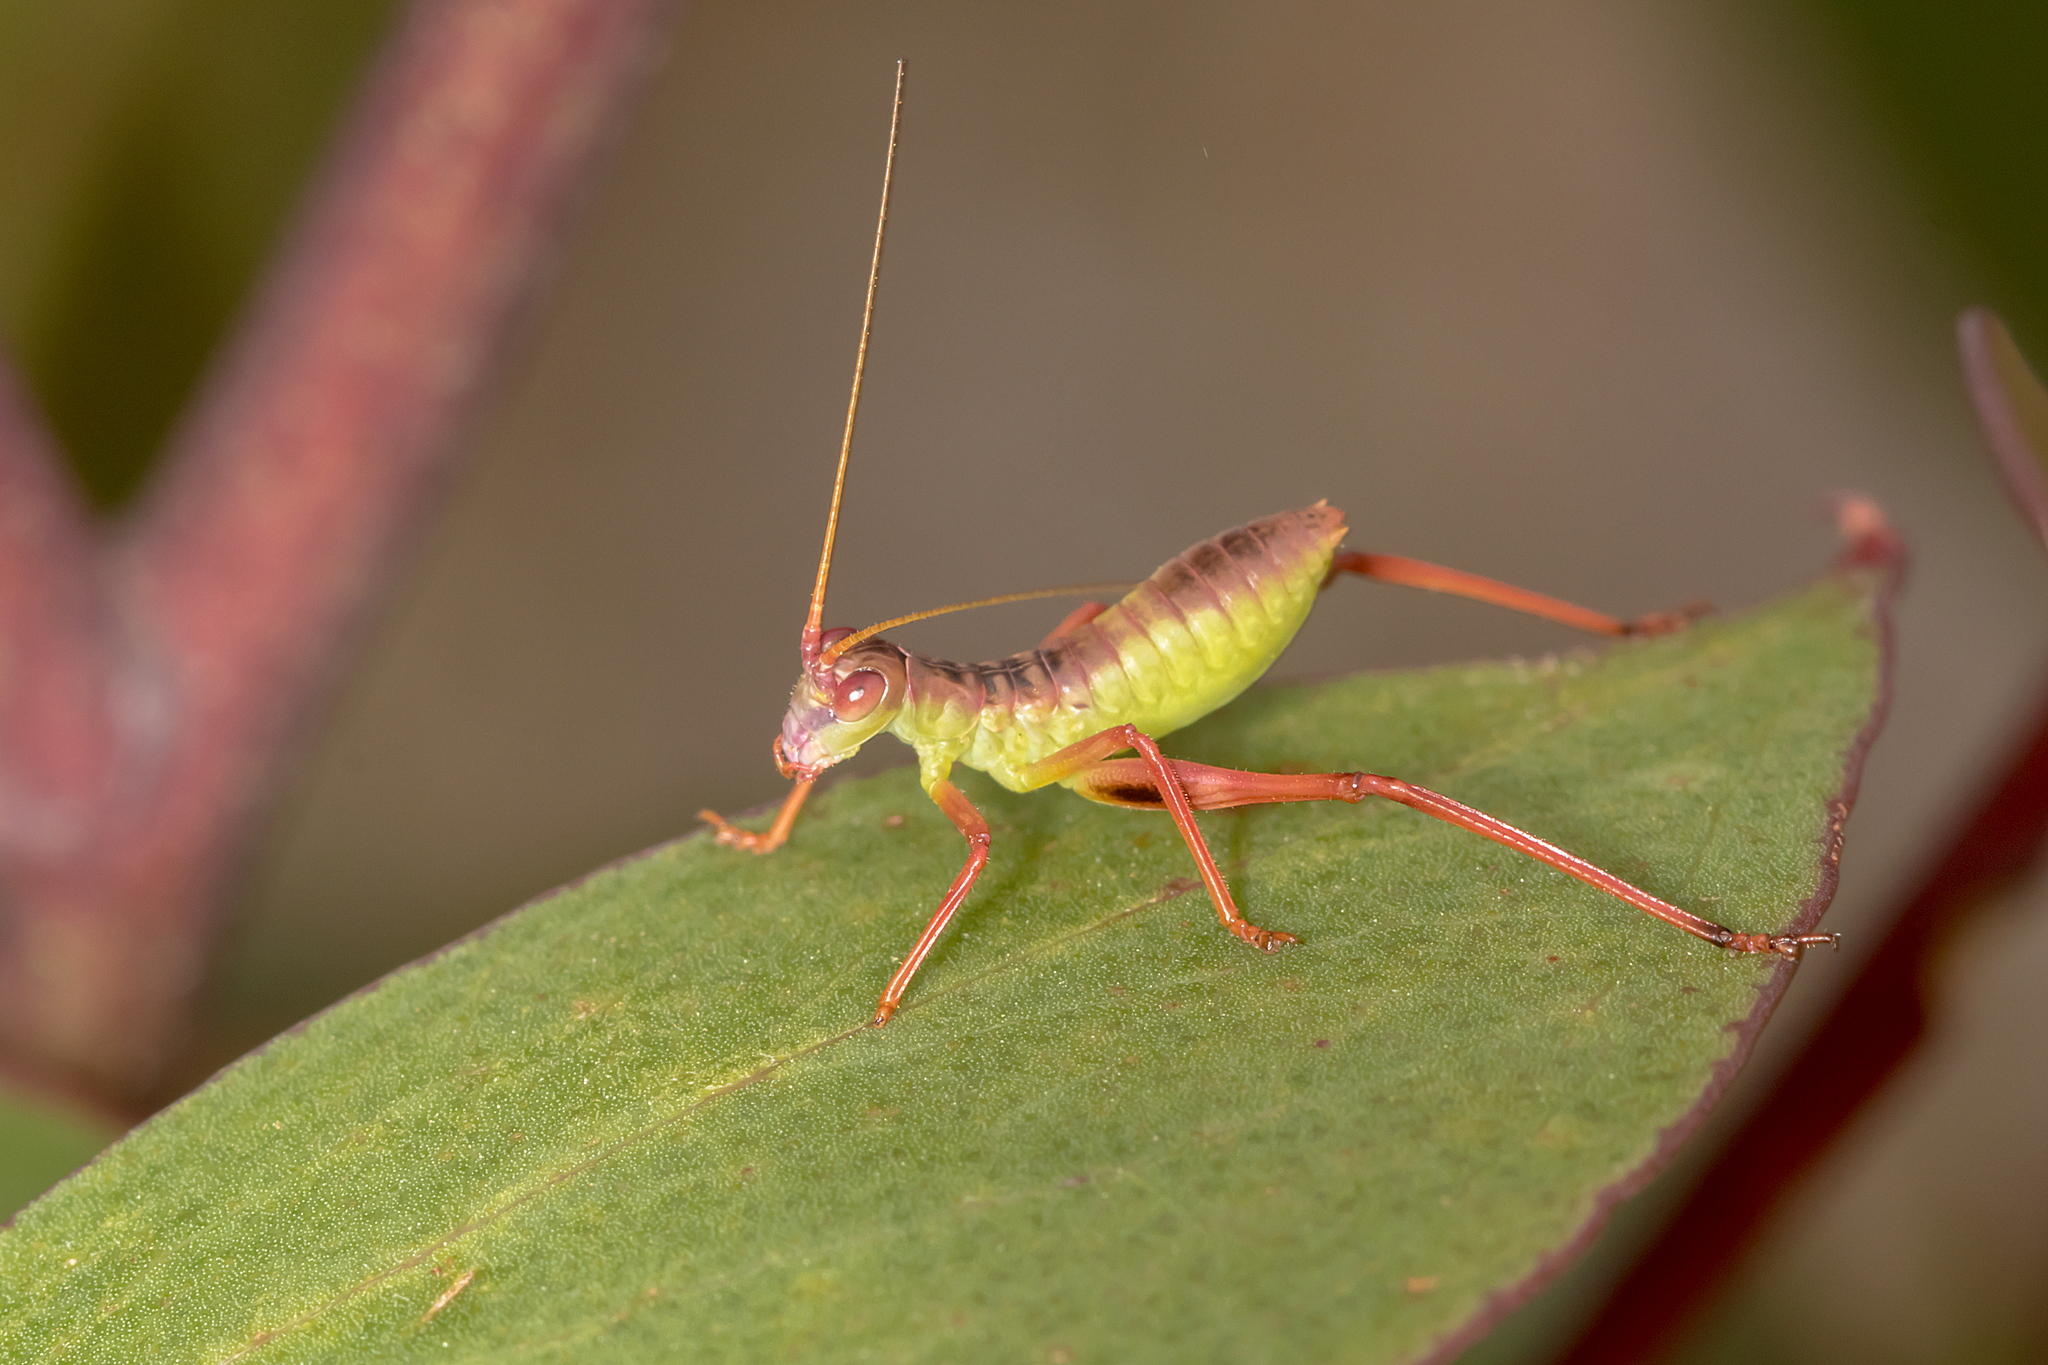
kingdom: Animalia
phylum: Arthropoda
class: Insecta
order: Orthoptera
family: Tettigoniidae
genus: Torbia
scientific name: Torbia viridissima
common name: Non-predaceous gum leaf katydid
